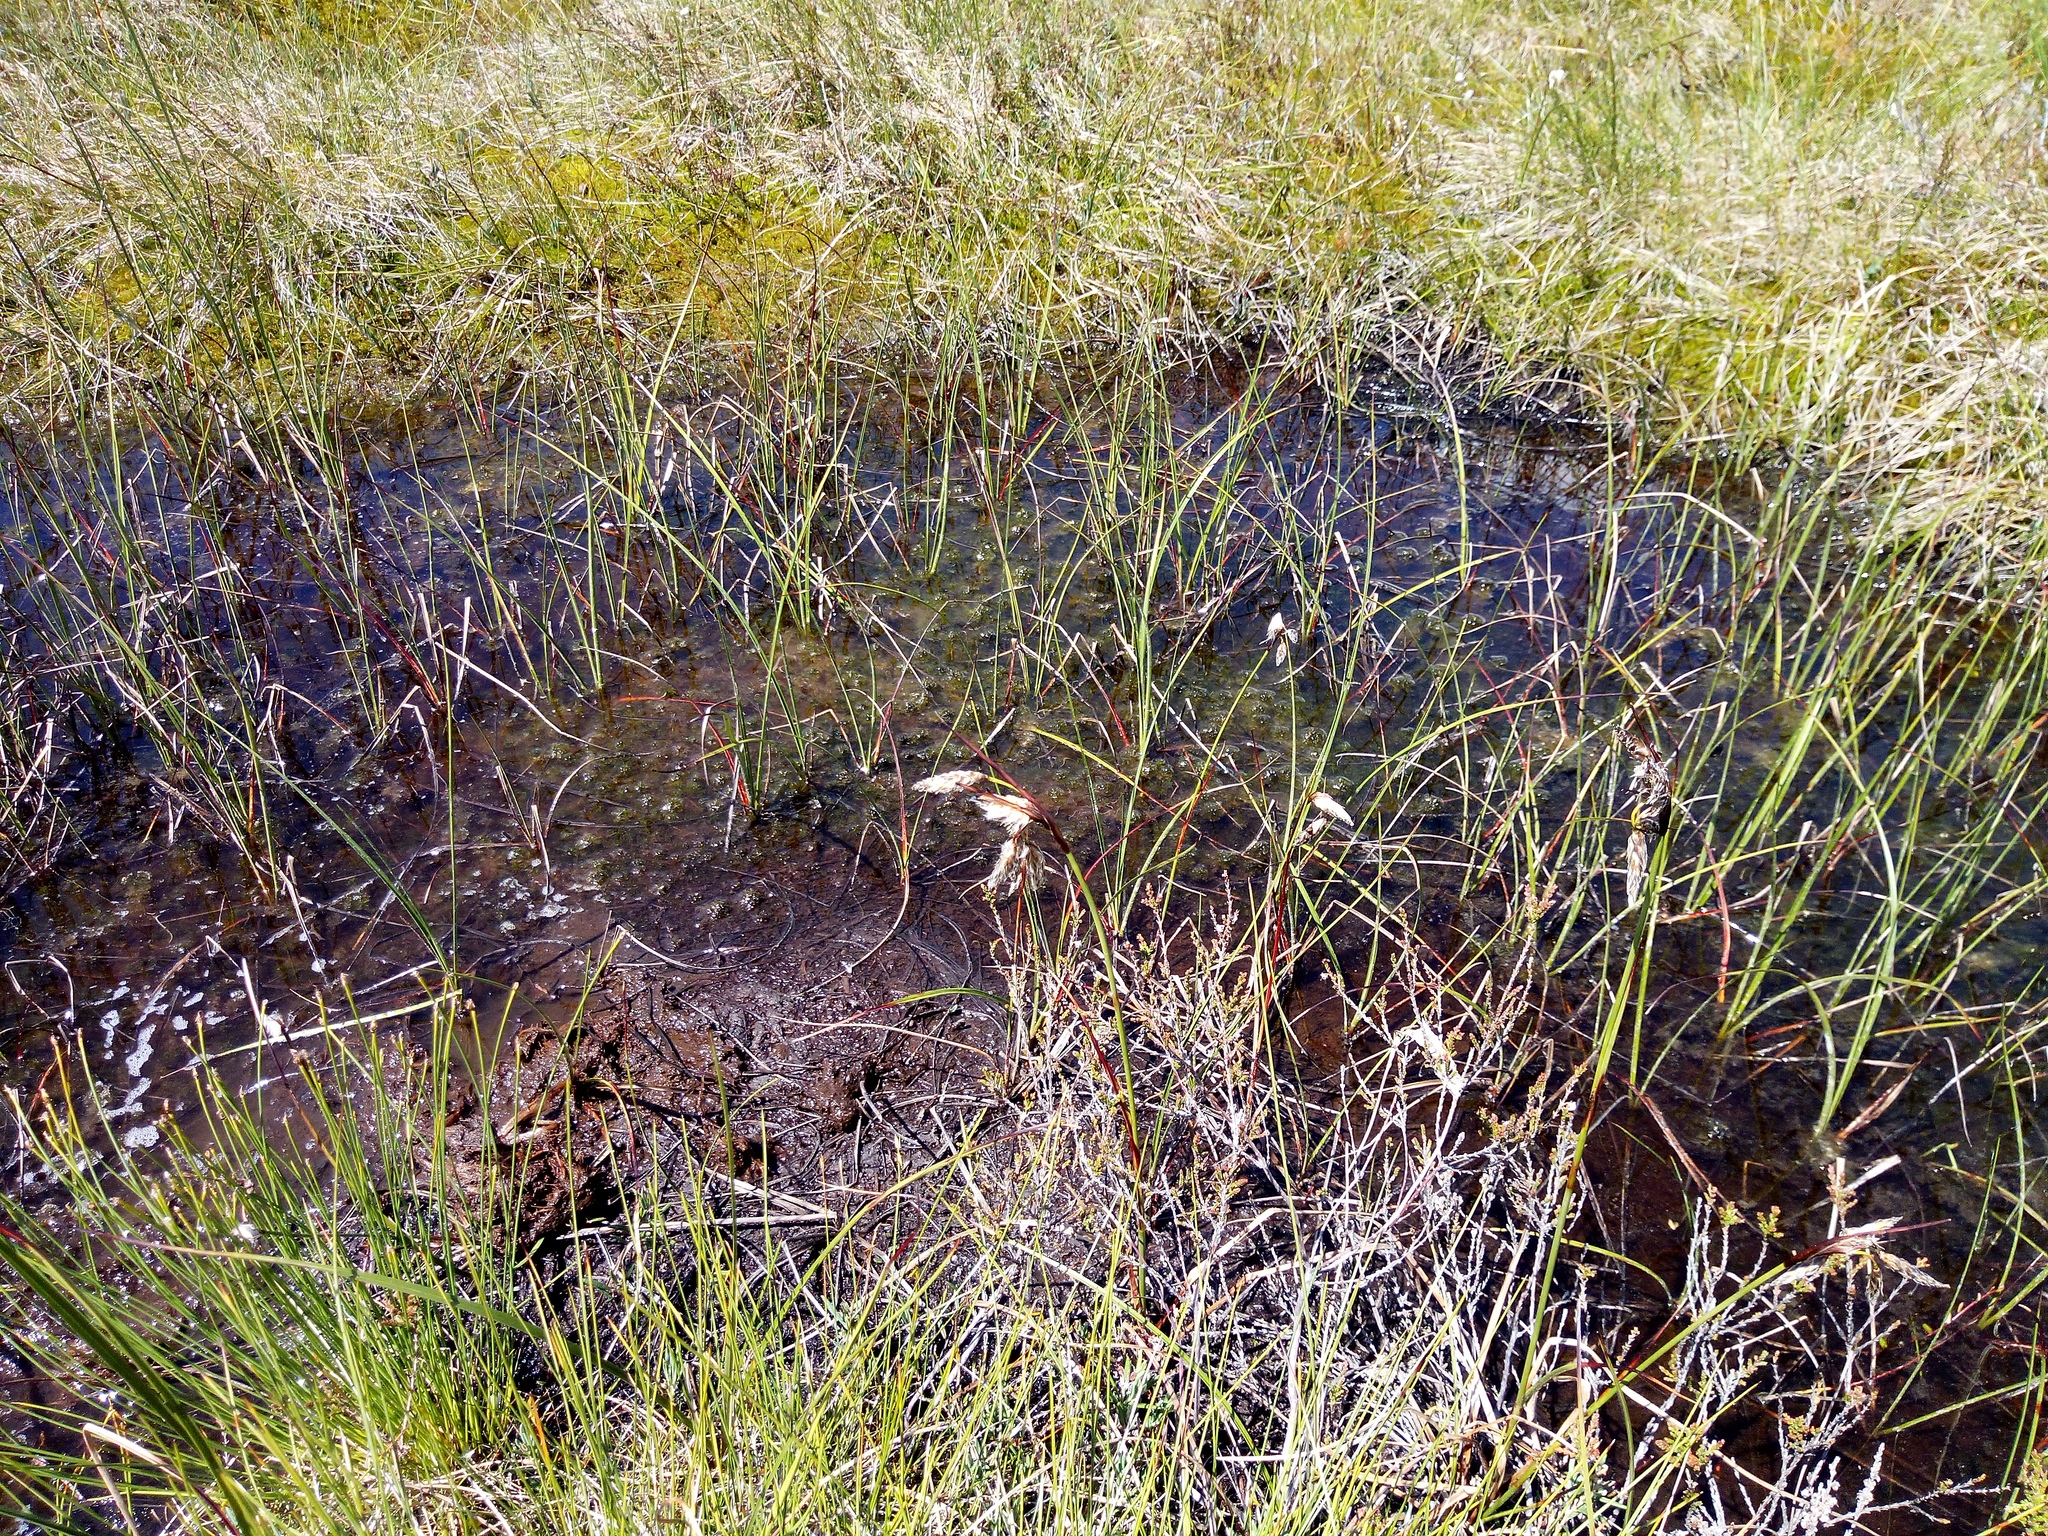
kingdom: Plantae
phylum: Tracheophyta
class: Liliopsida
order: Poales
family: Cyperaceae
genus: Eriophorum
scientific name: Eriophorum angustifolium
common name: Common cottongrass
